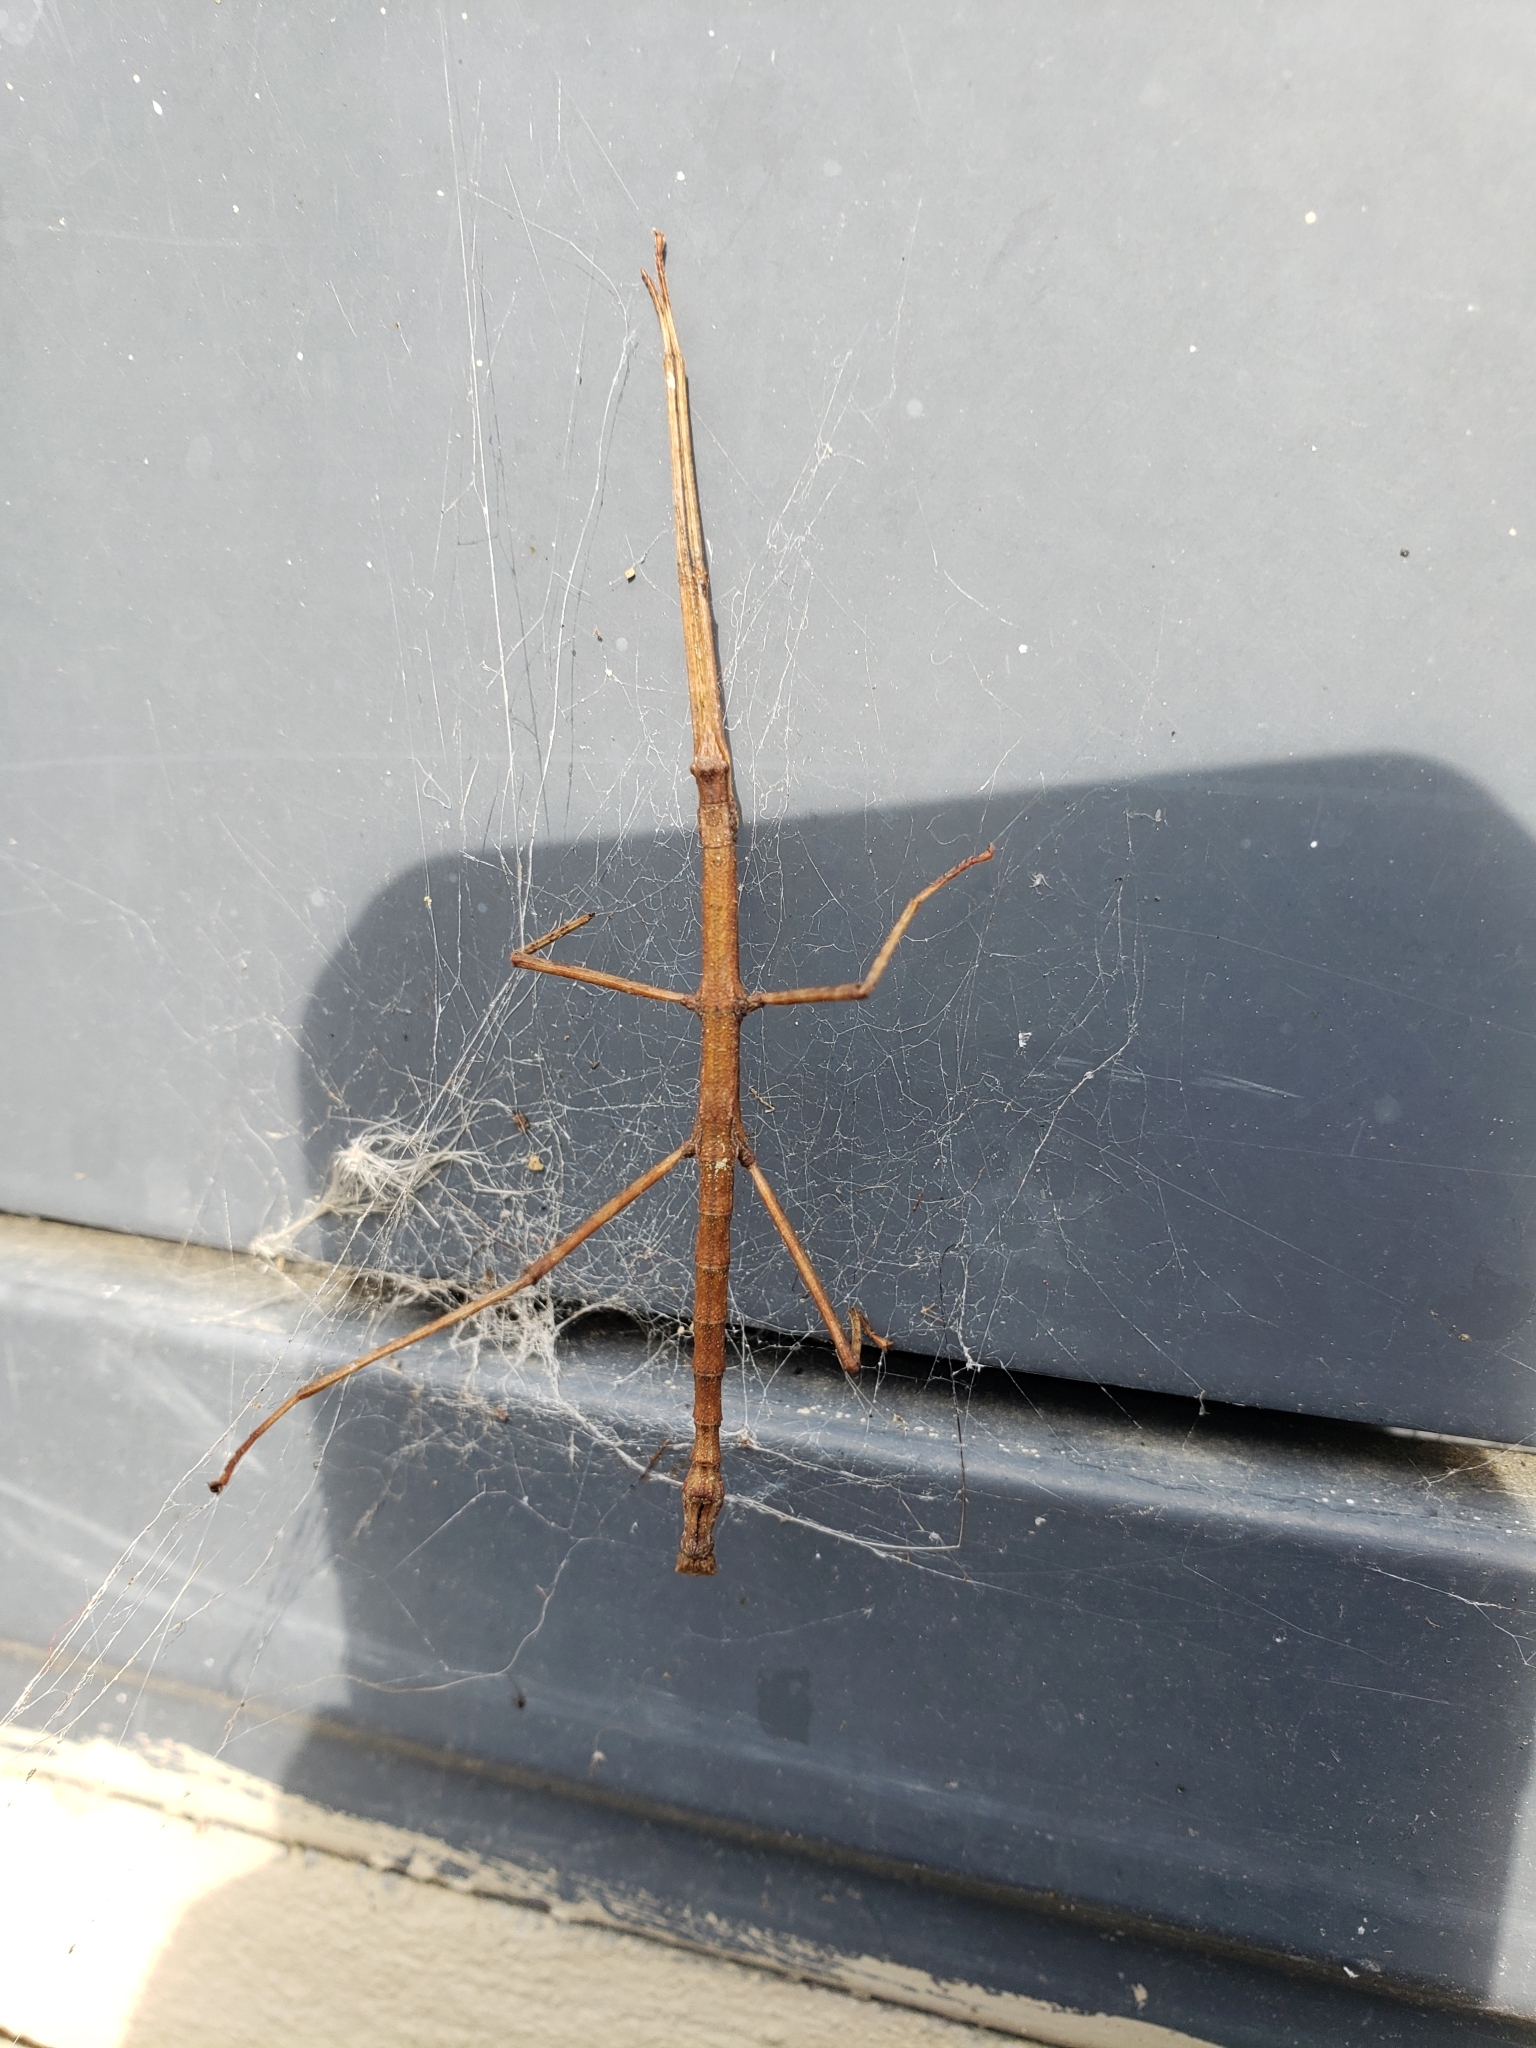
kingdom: Animalia
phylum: Arthropoda
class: Insecta
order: Phasmida
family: Phasmatidae
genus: Niveaphasma
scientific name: Niveaphasma annulatum
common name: Hutton's stick insect
